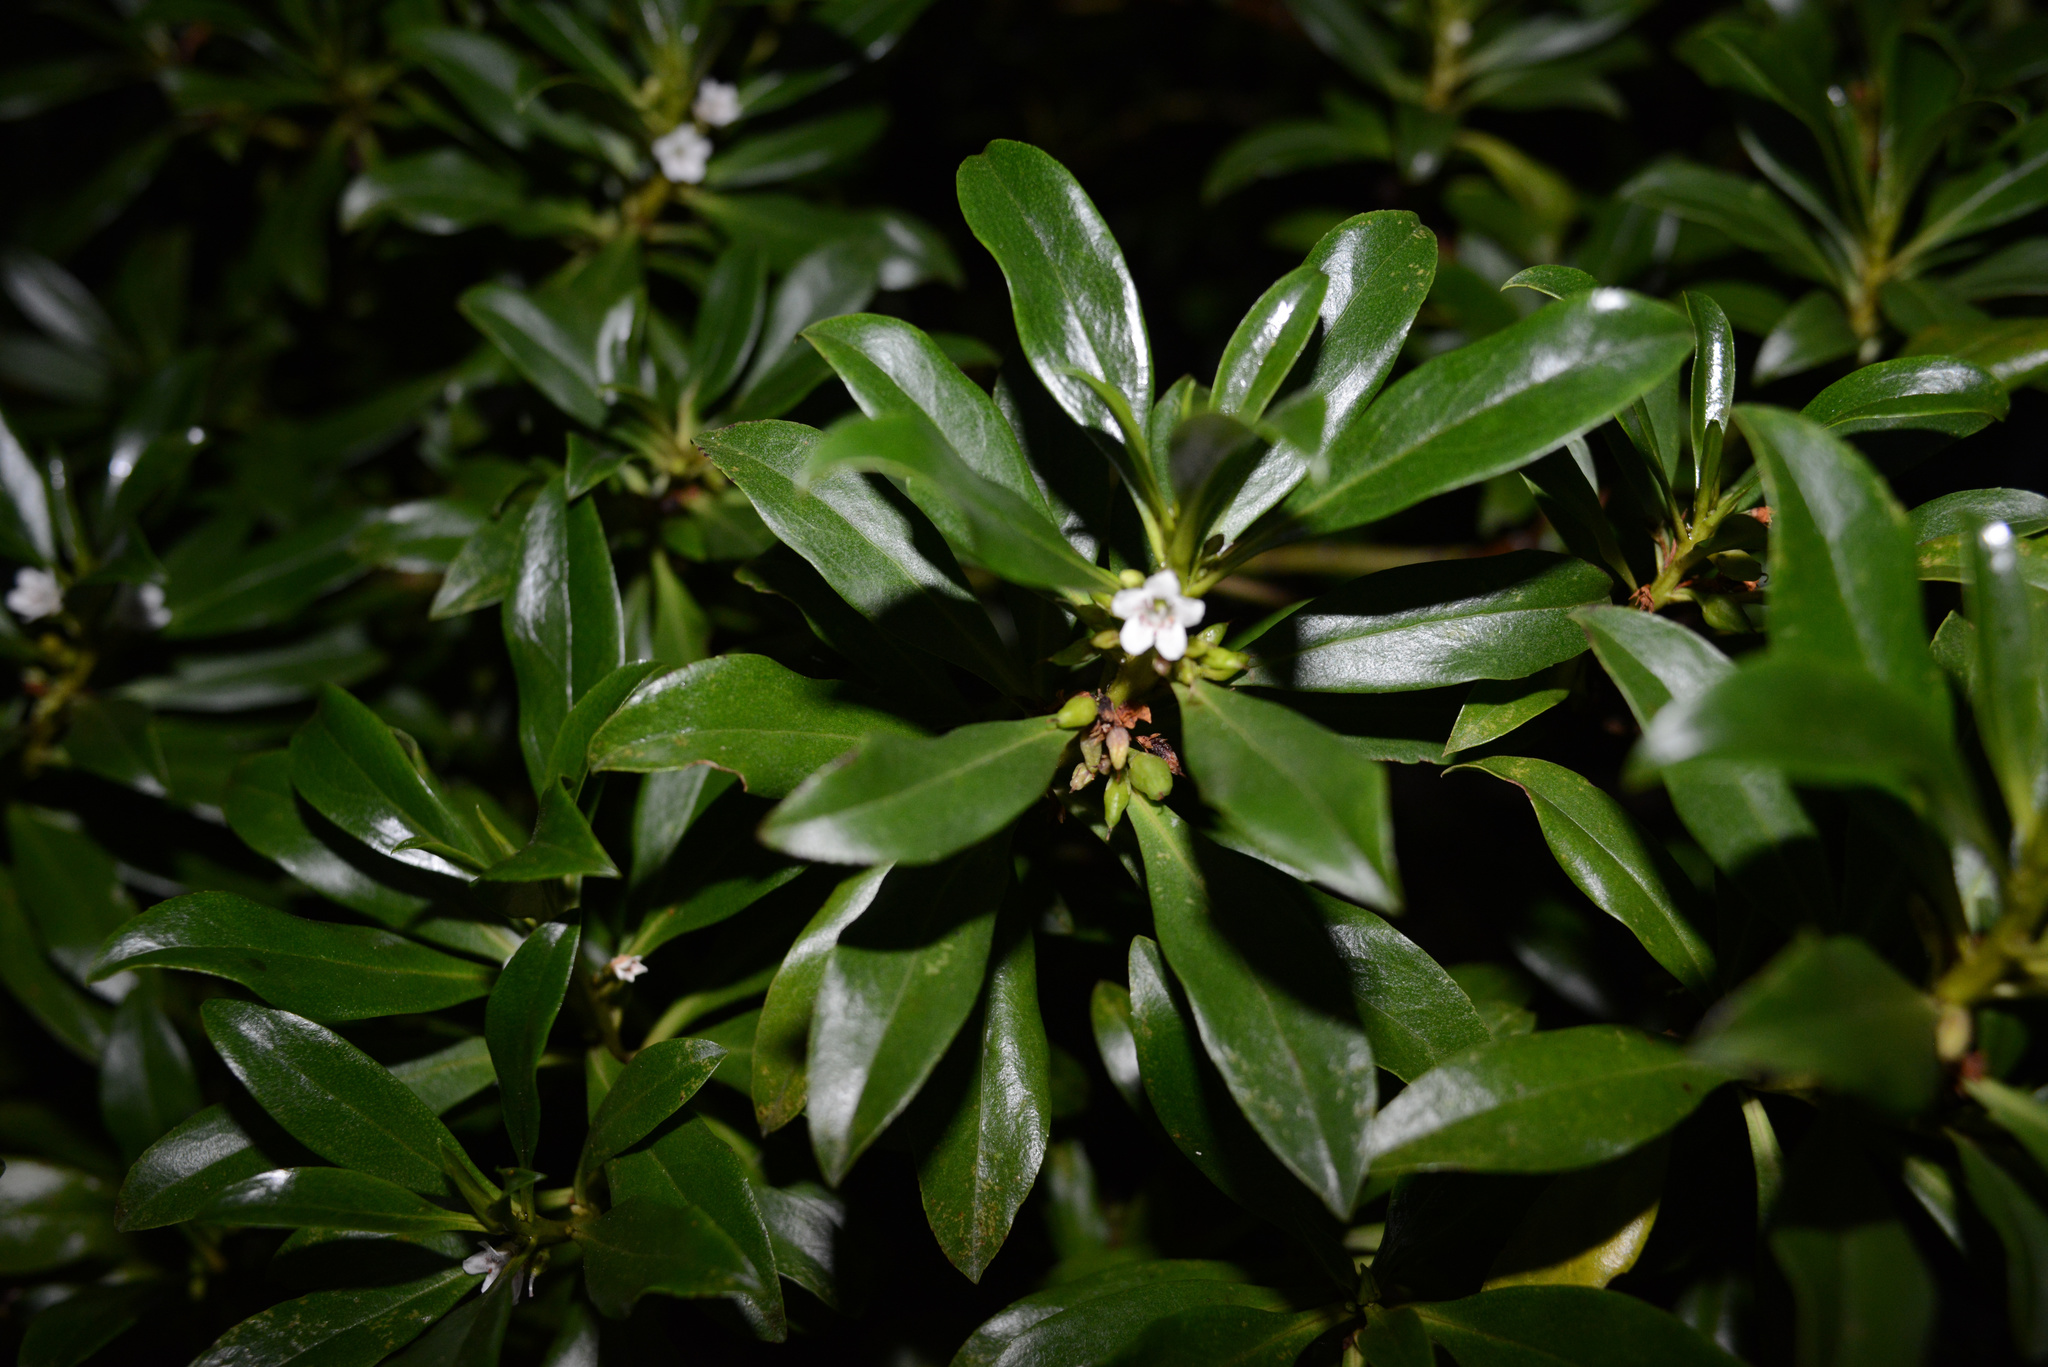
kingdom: Plantae
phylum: Tracheophyta
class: Magnoliopsida
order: Lamiales
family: Scrophulariaceae
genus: Myoporum
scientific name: Myoporum
